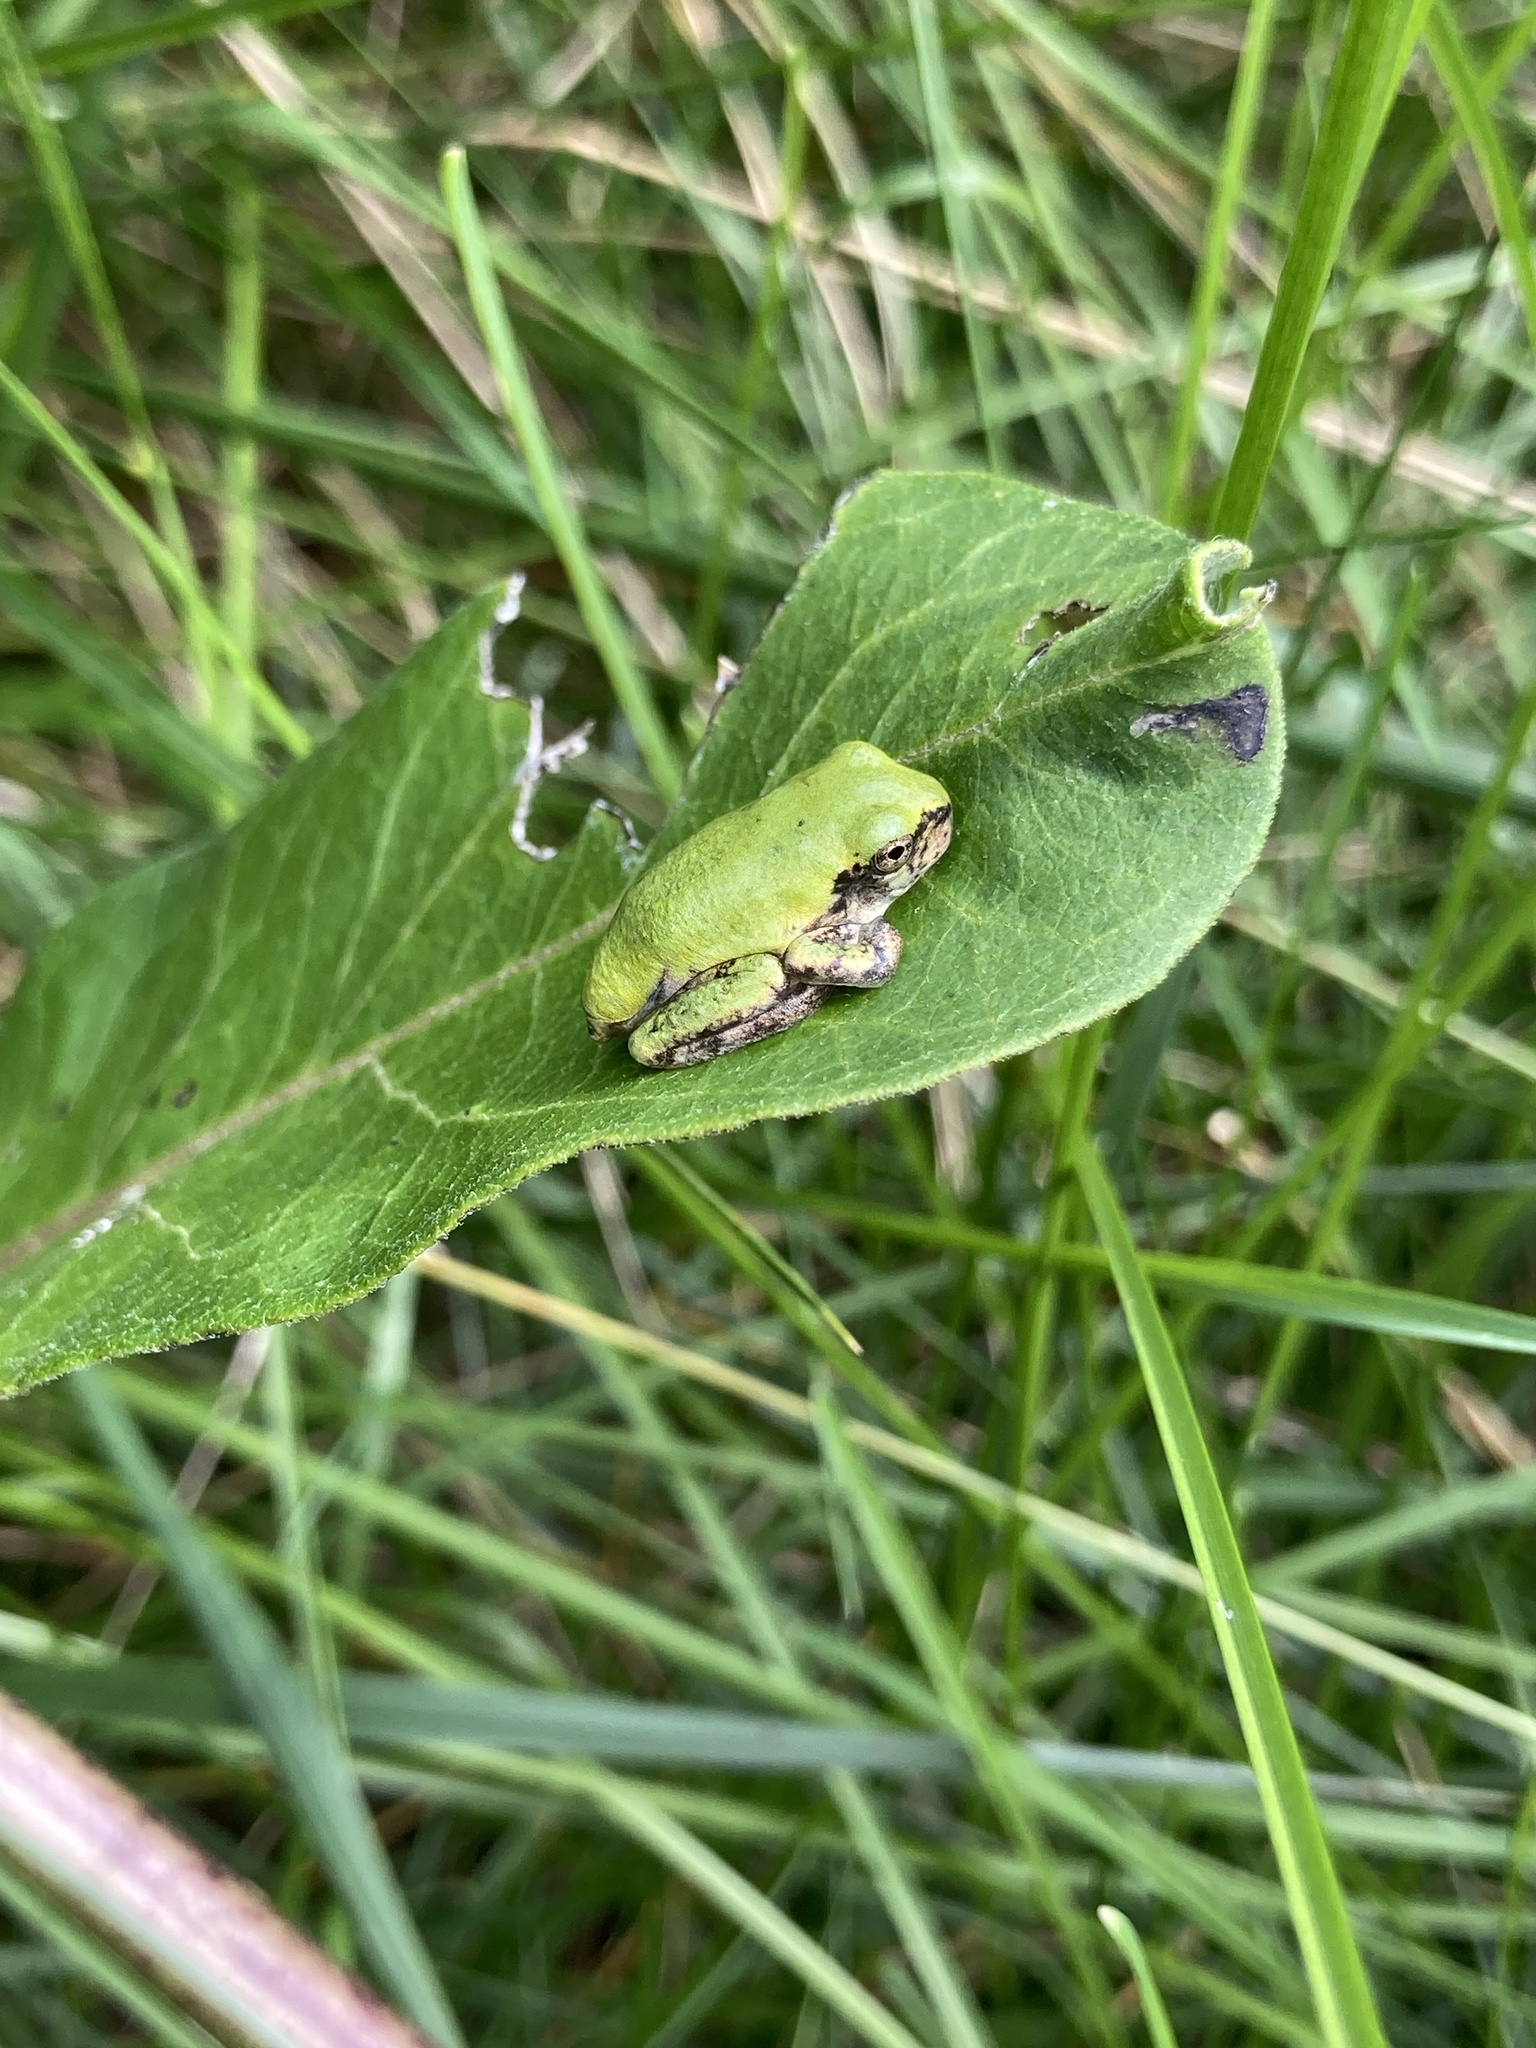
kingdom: Animalia
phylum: Chordata
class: Amphibia
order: Anura
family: Hylidae
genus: Dryophytes
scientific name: Dryophytes versicolor
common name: Gray treefrog
